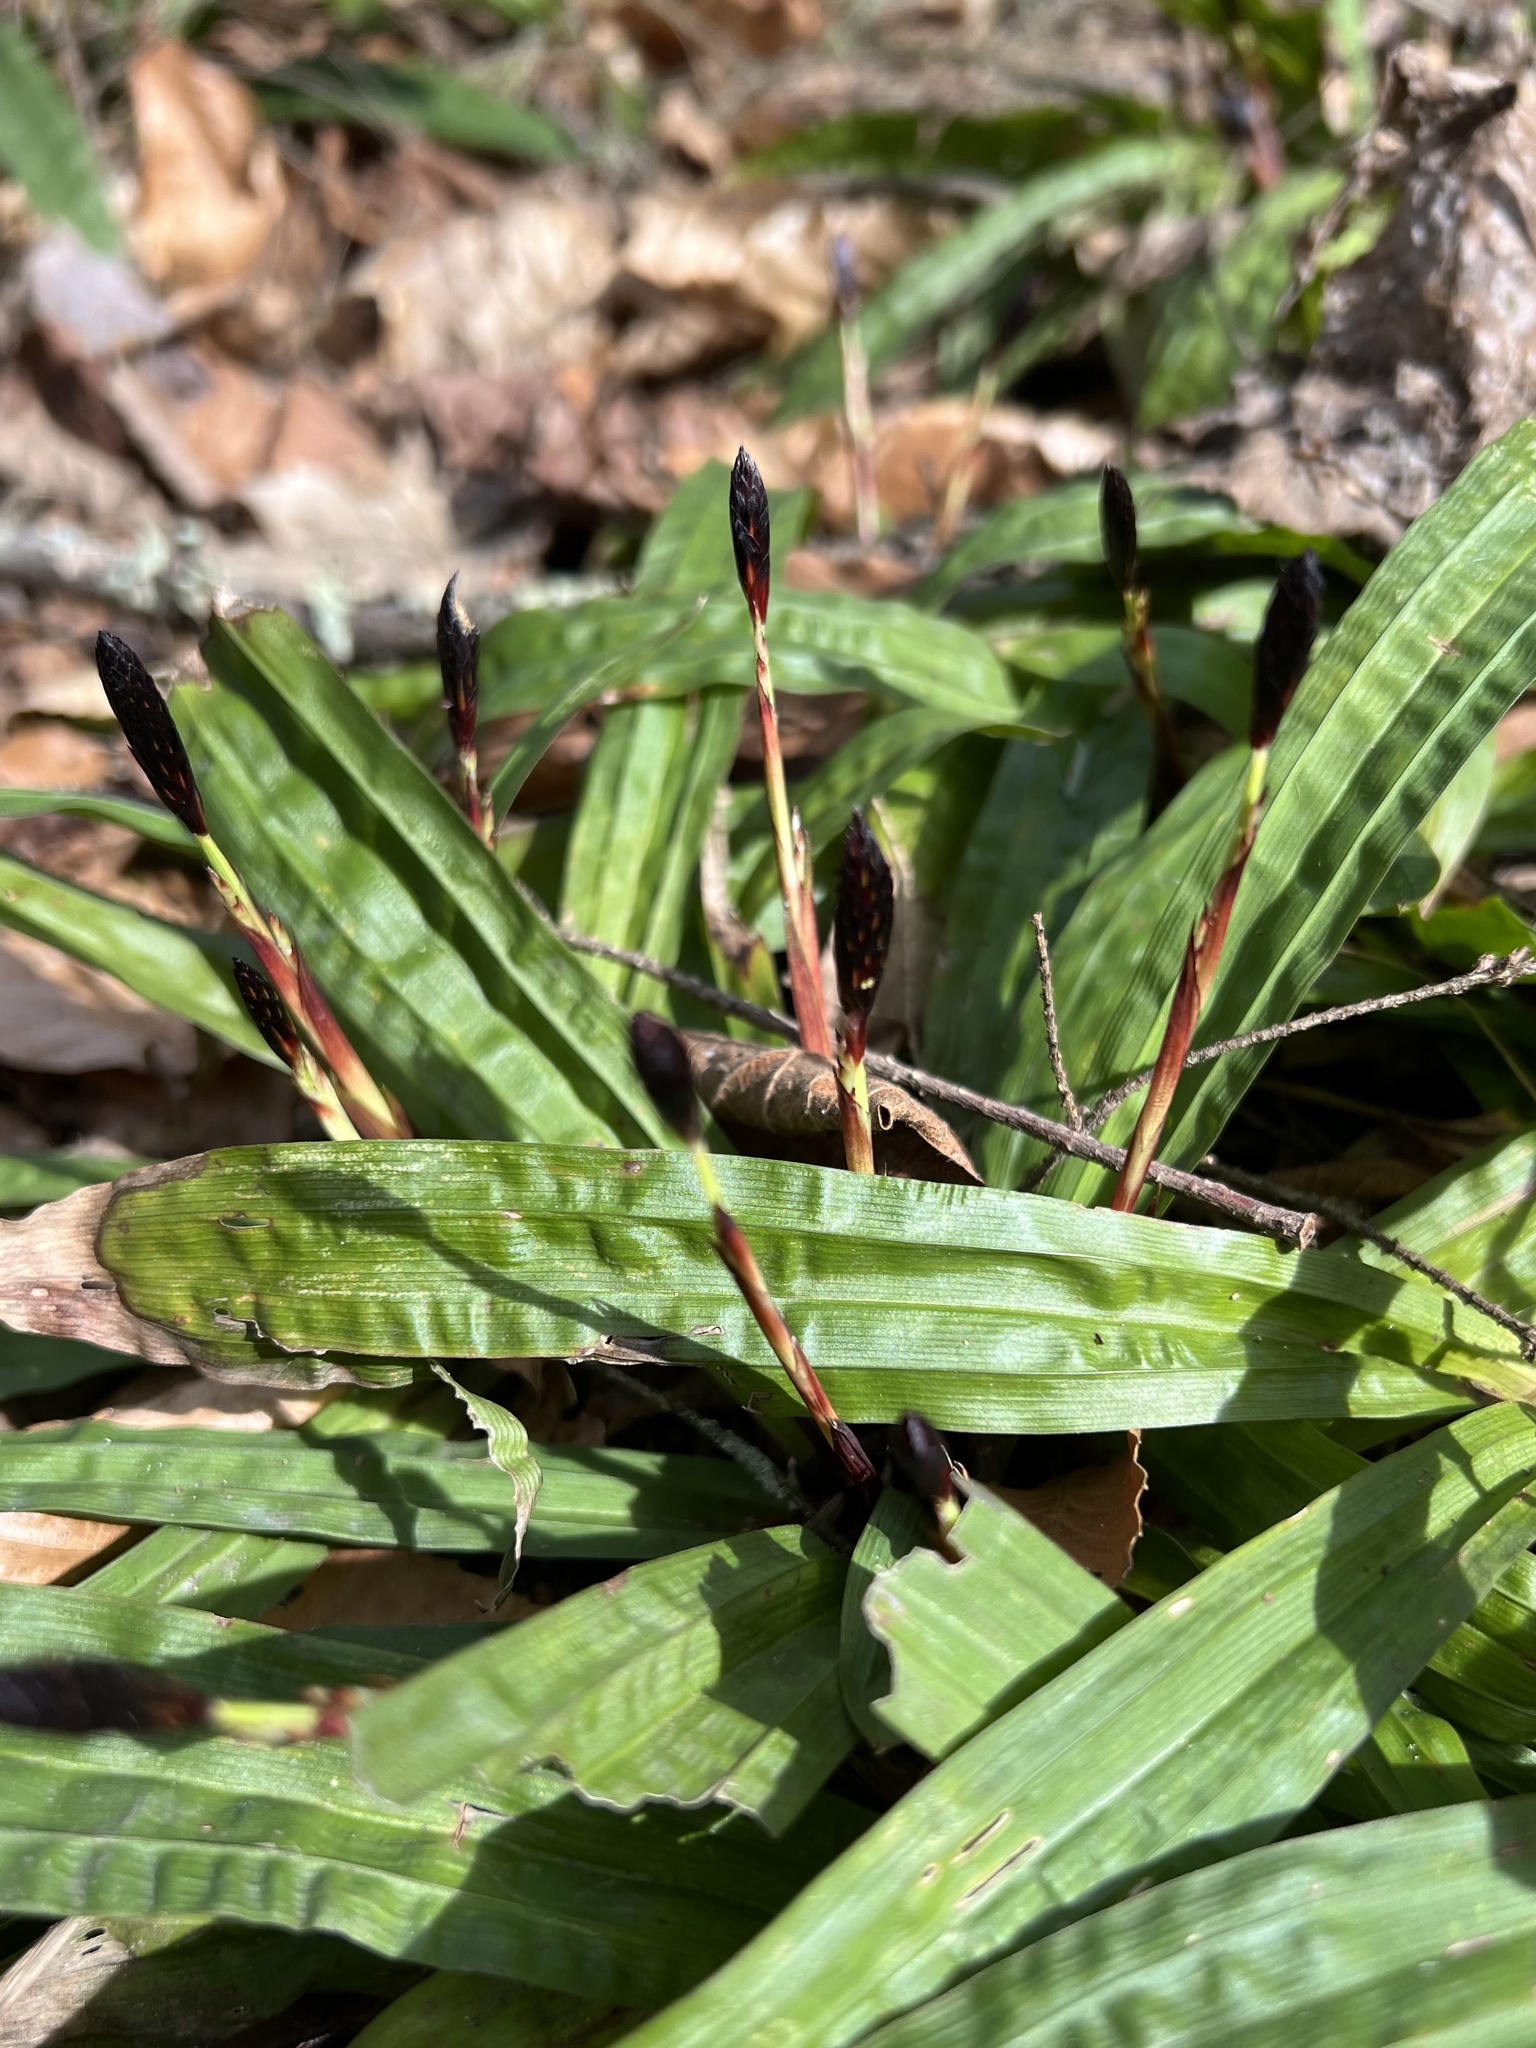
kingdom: Plantae
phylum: Tracheophyta
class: Liliopsida
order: Poales
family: Cyperaceae
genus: Carex
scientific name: Carex plantaginea
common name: Plantain-leaved sedge
